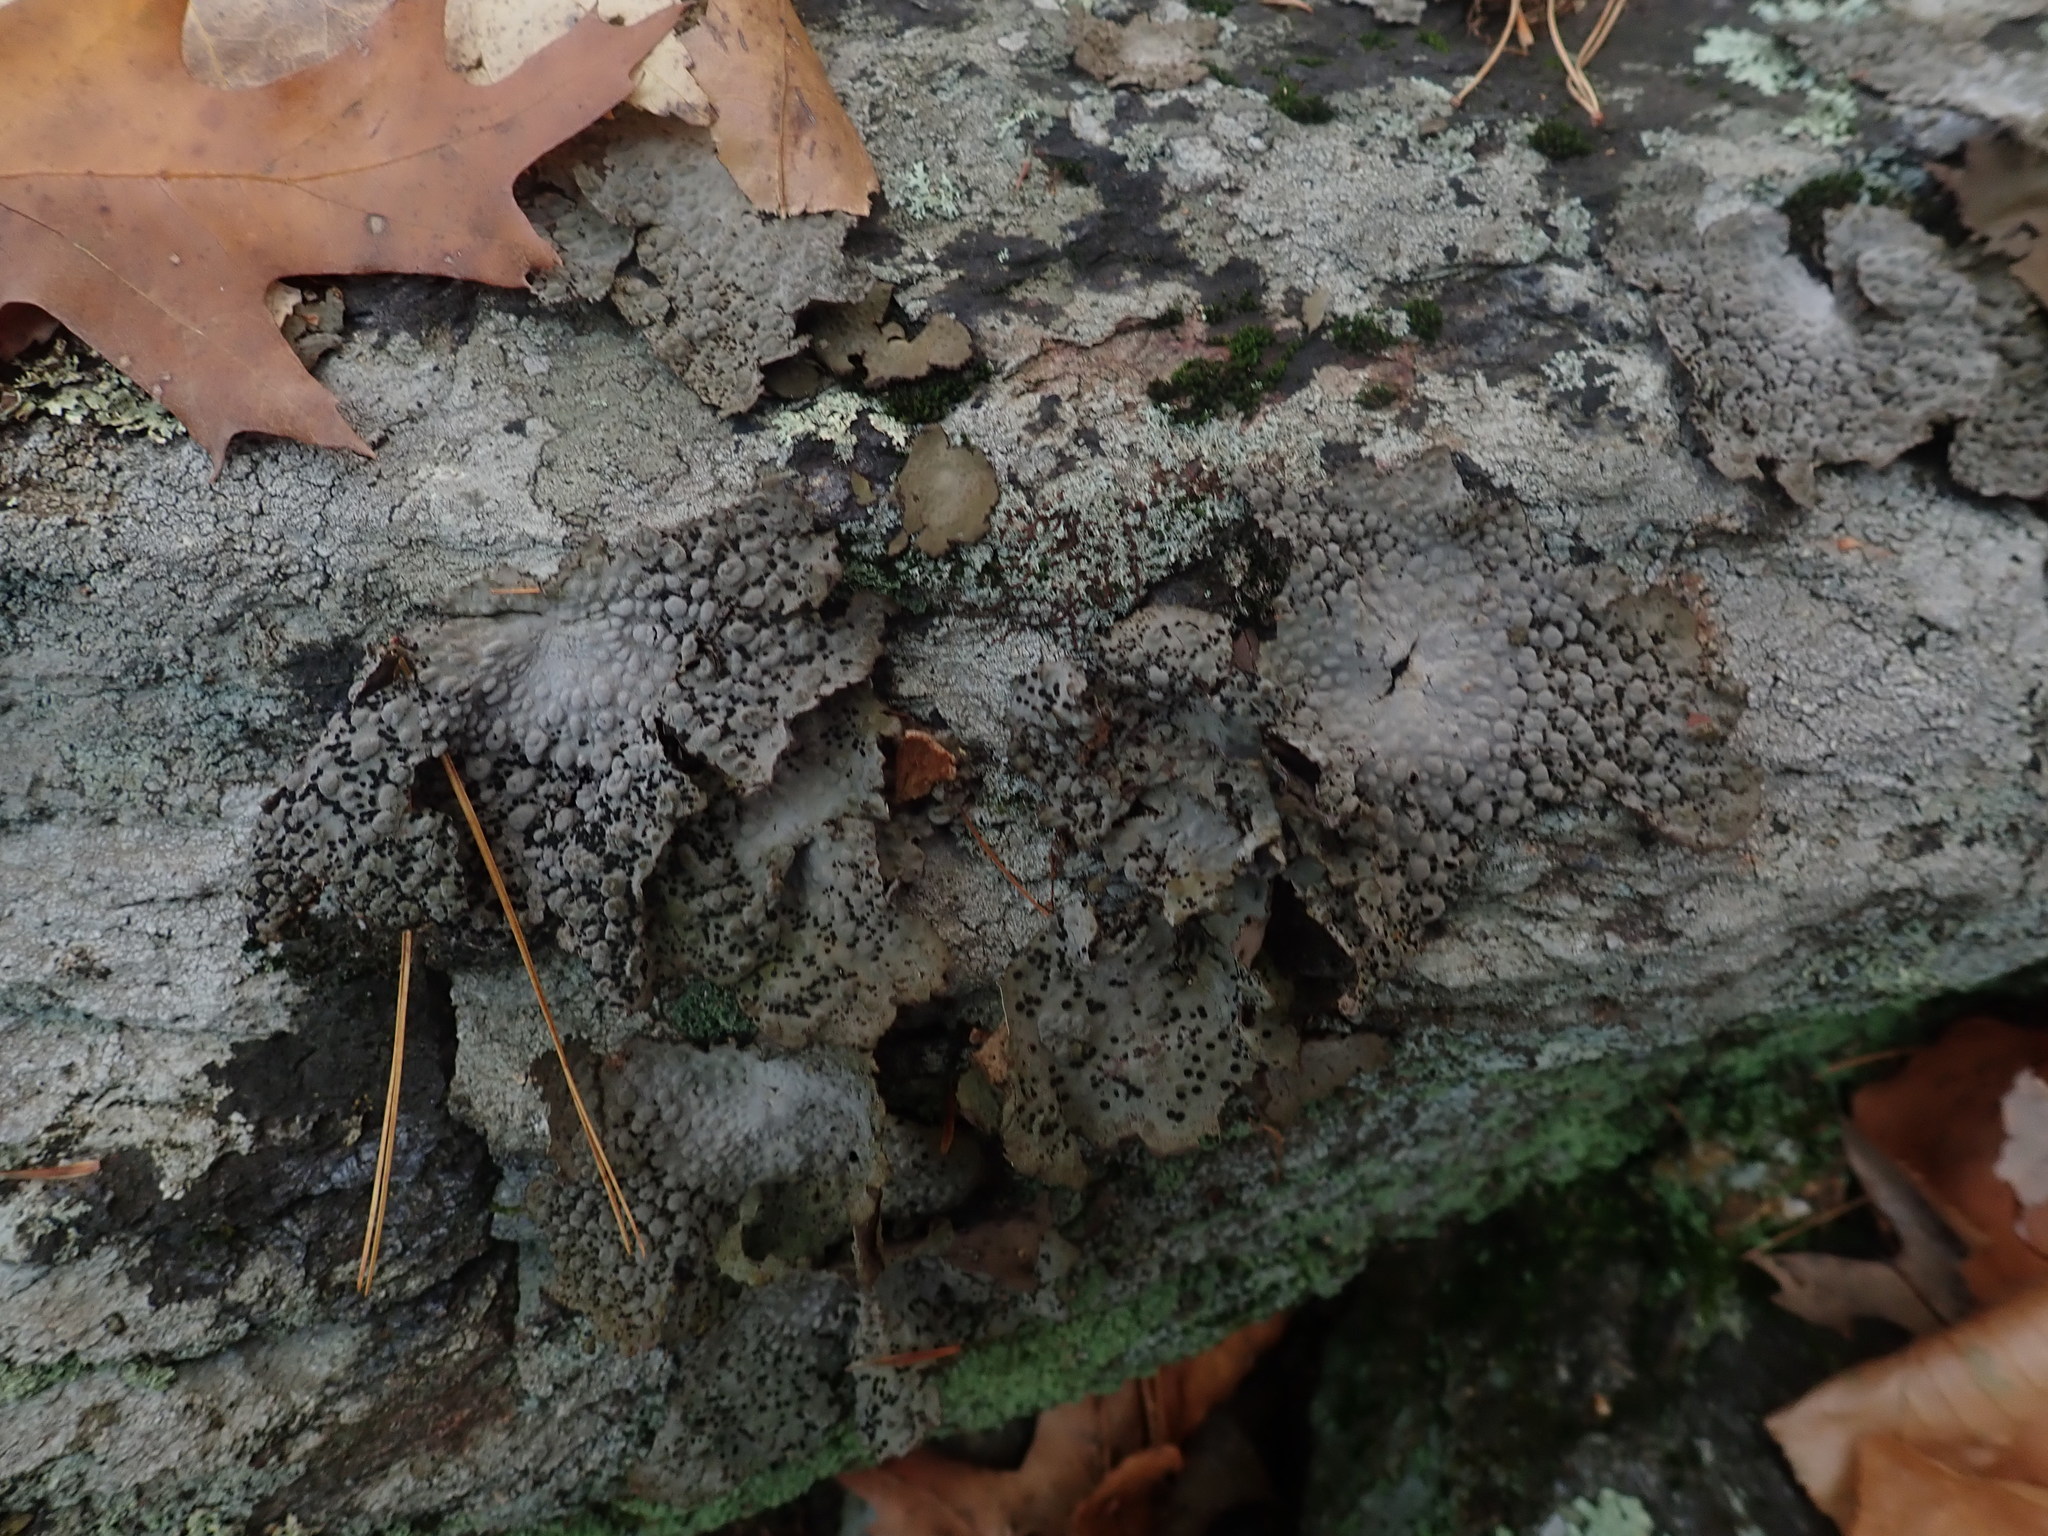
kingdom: Fungi
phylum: Ascomycota
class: Lecanoromycetes
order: Umbilicariales
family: Umbilicariaceae
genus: Lasallia
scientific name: Lasallia papulosa
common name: Common toadskin lichen
